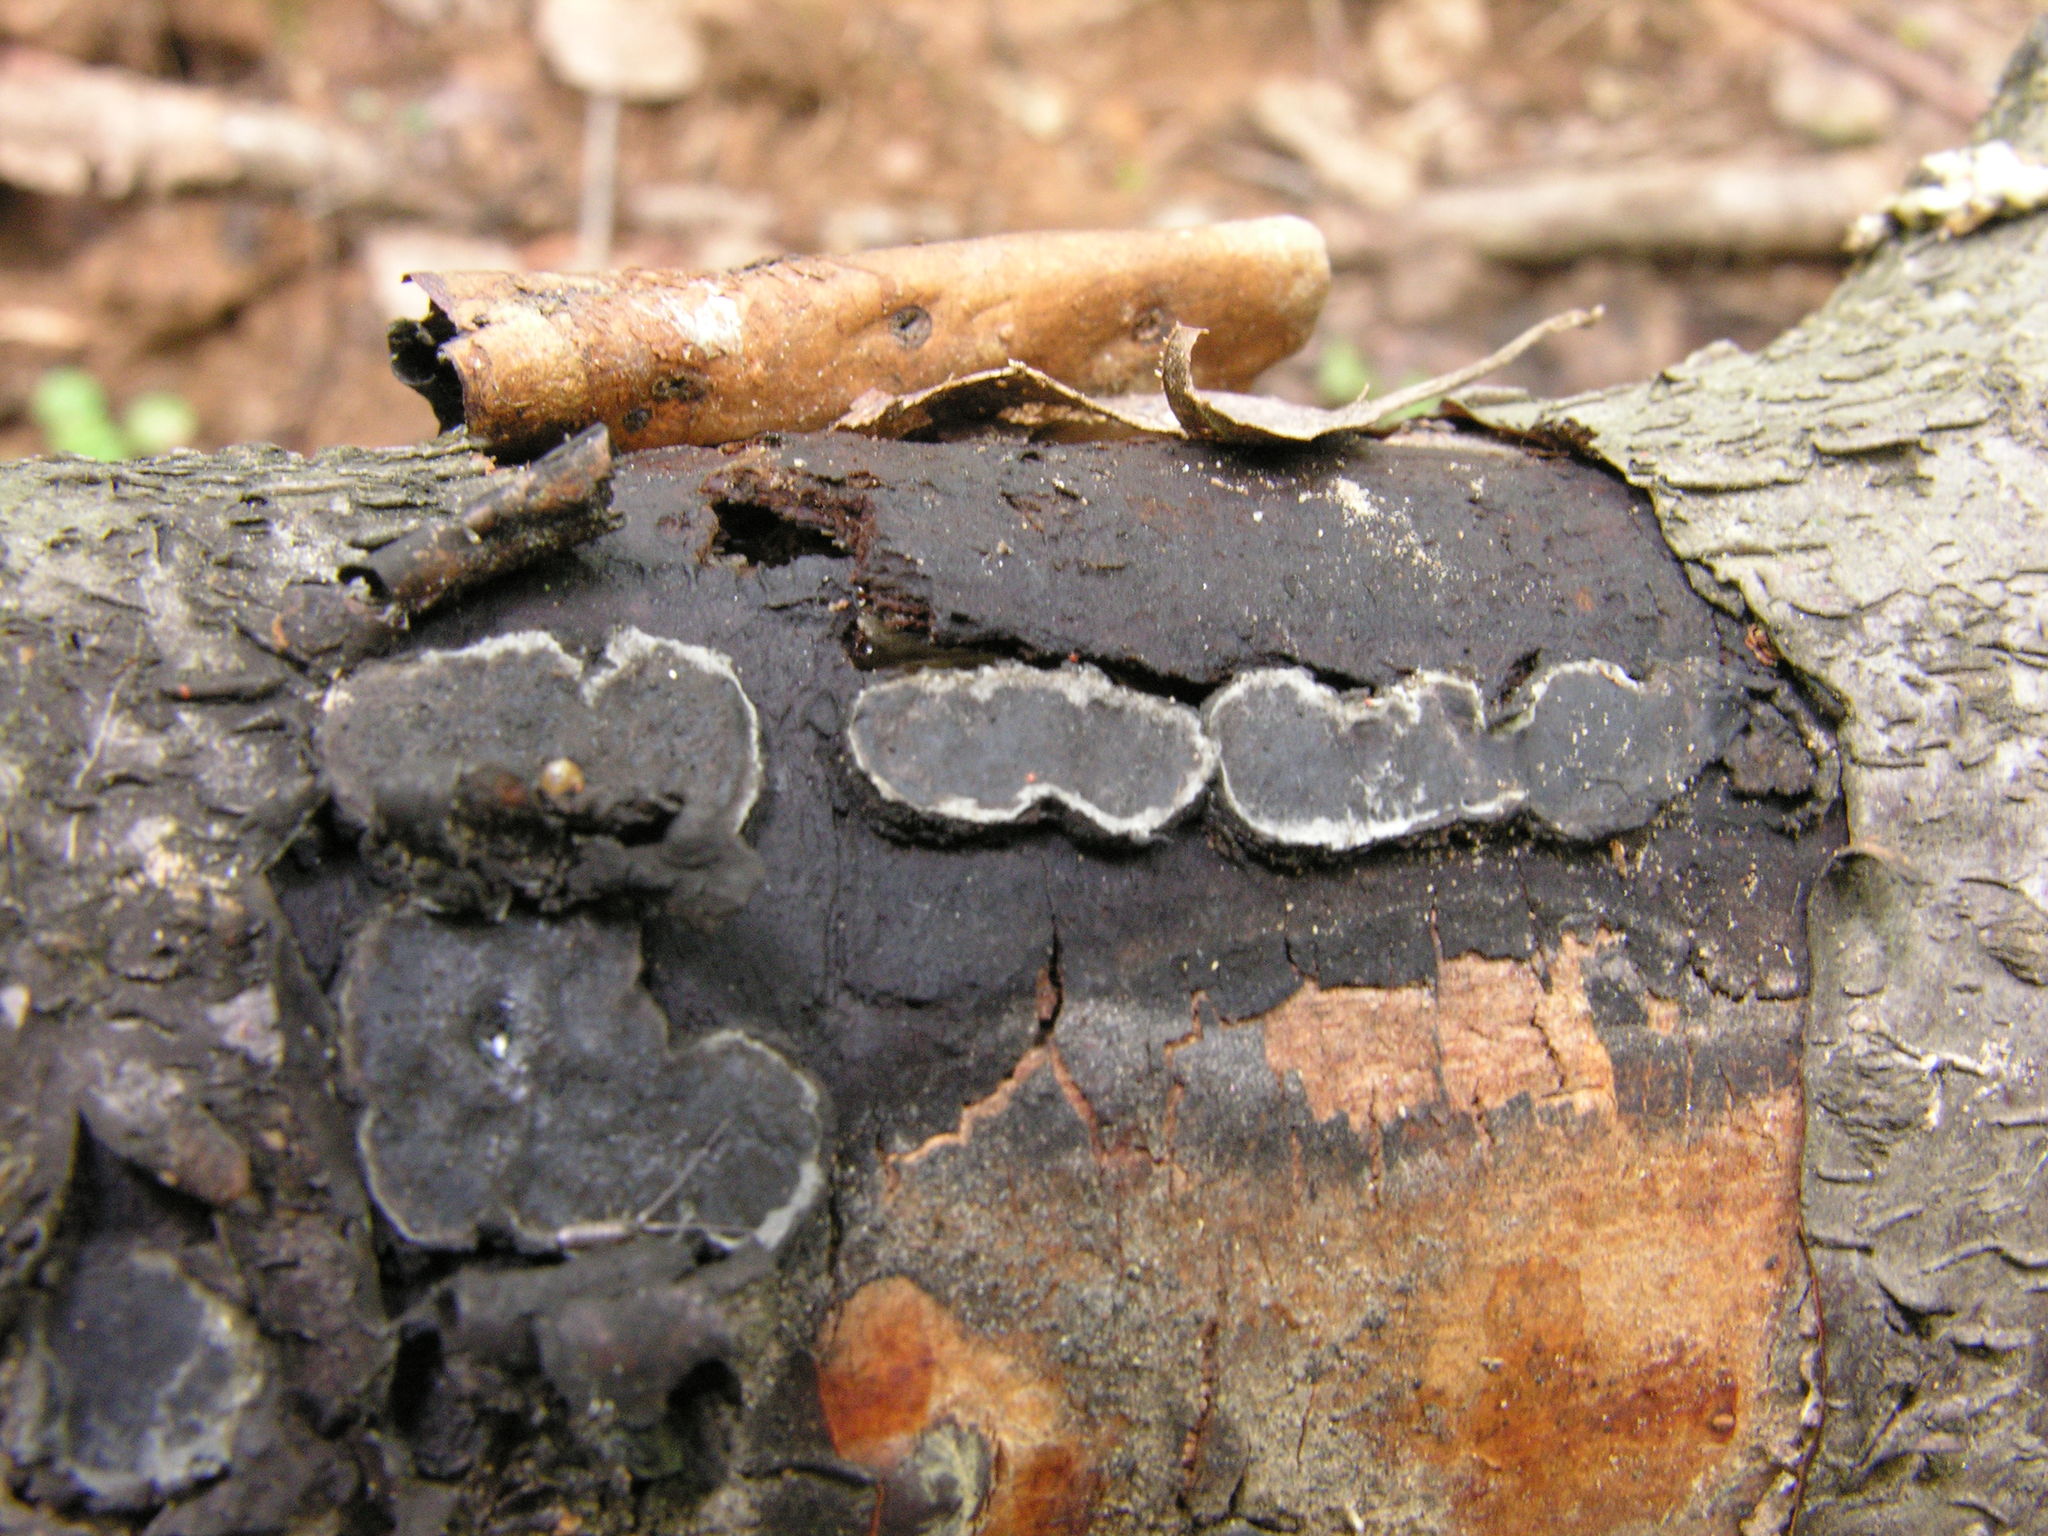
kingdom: Fungi
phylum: Ascomycota
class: Sordariomycetes
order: Xylariales
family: Graphostromataceae
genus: Biscogniauxia
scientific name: Biscogniauxia granmoi
